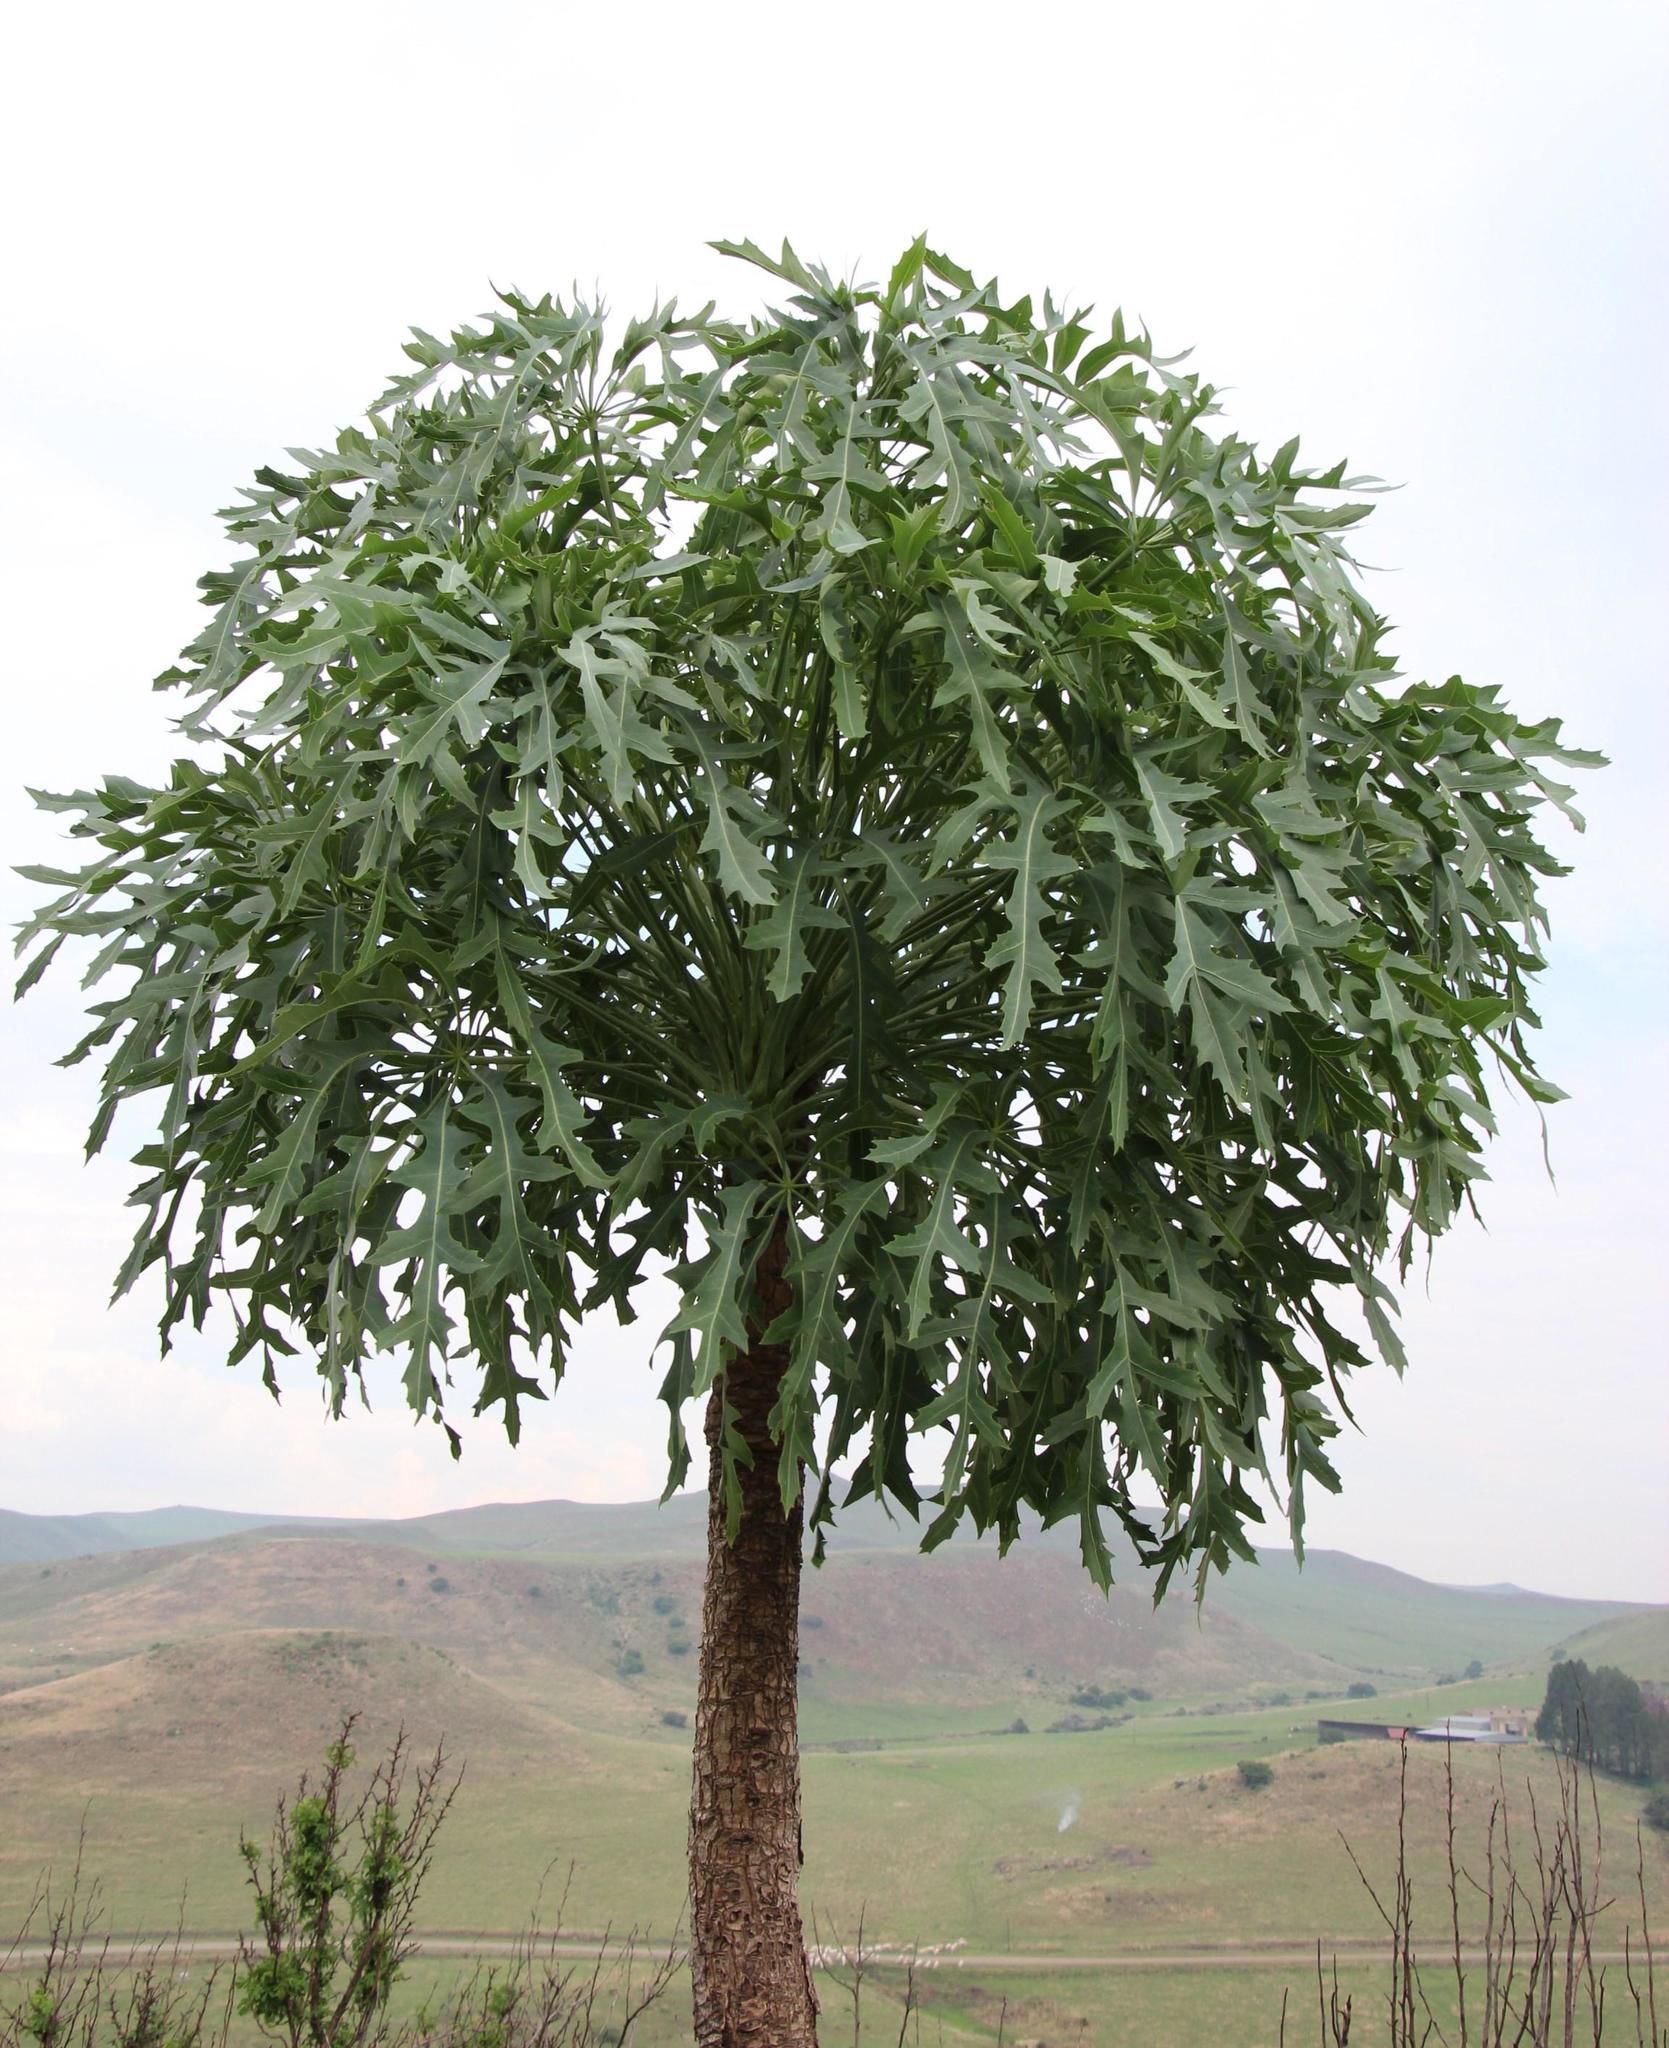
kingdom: Plantae
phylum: Tracheophyta
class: Magnoliopsida
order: Apiales
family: Araliaceae
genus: Cussonia
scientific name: Cussonia paniculata
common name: Cabbagetree
